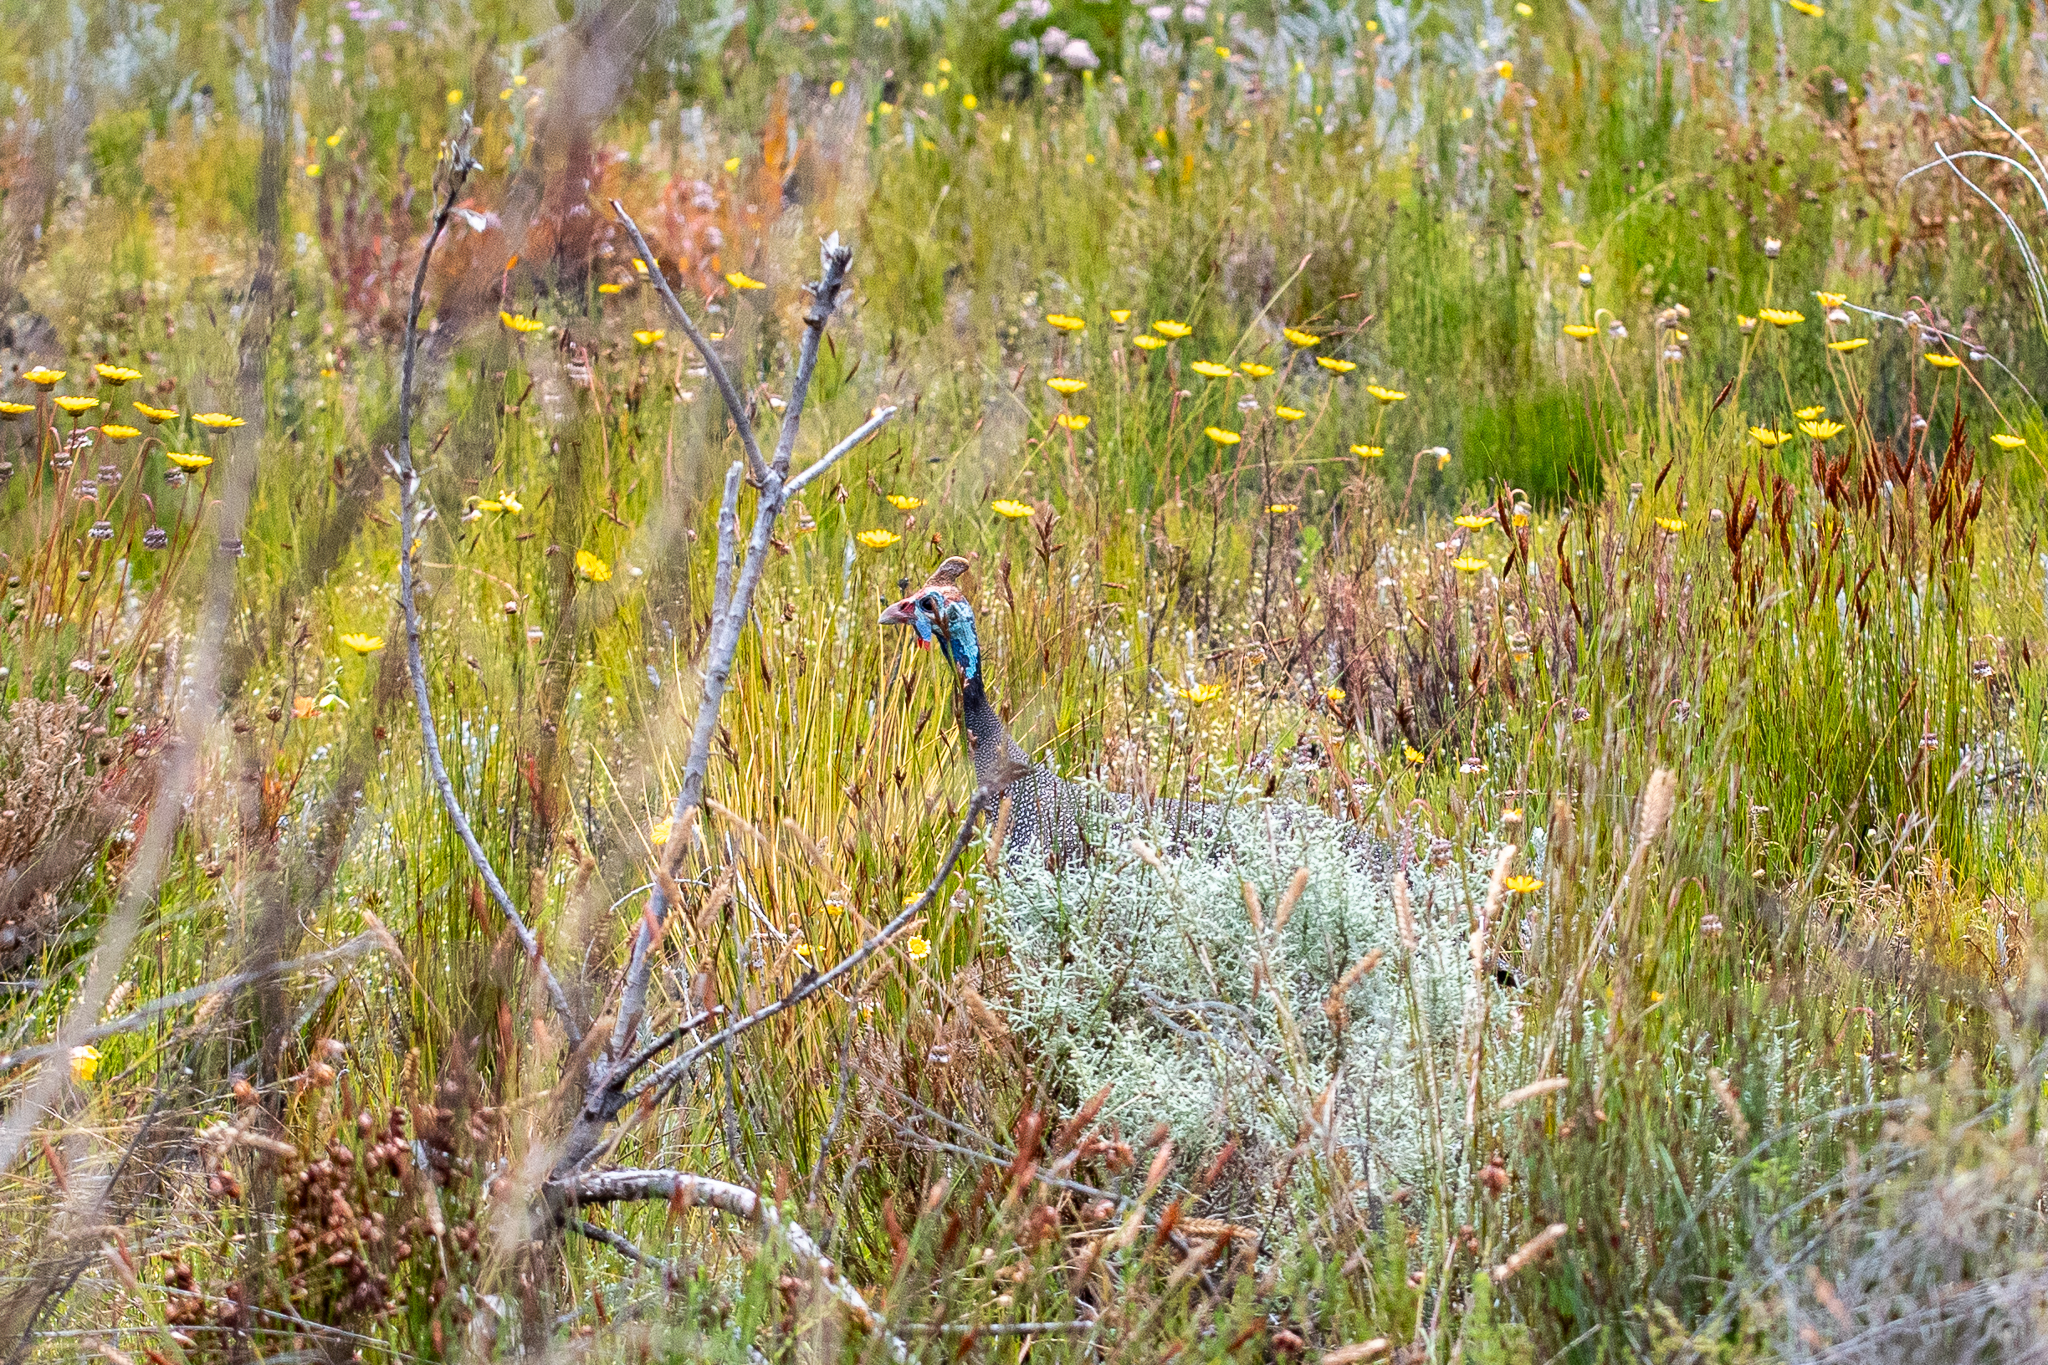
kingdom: Animalia
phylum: Chordata
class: Aves
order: Galliformes
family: Numididae
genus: Numida
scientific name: Numida meleagris
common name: Helmeted guineafowl
